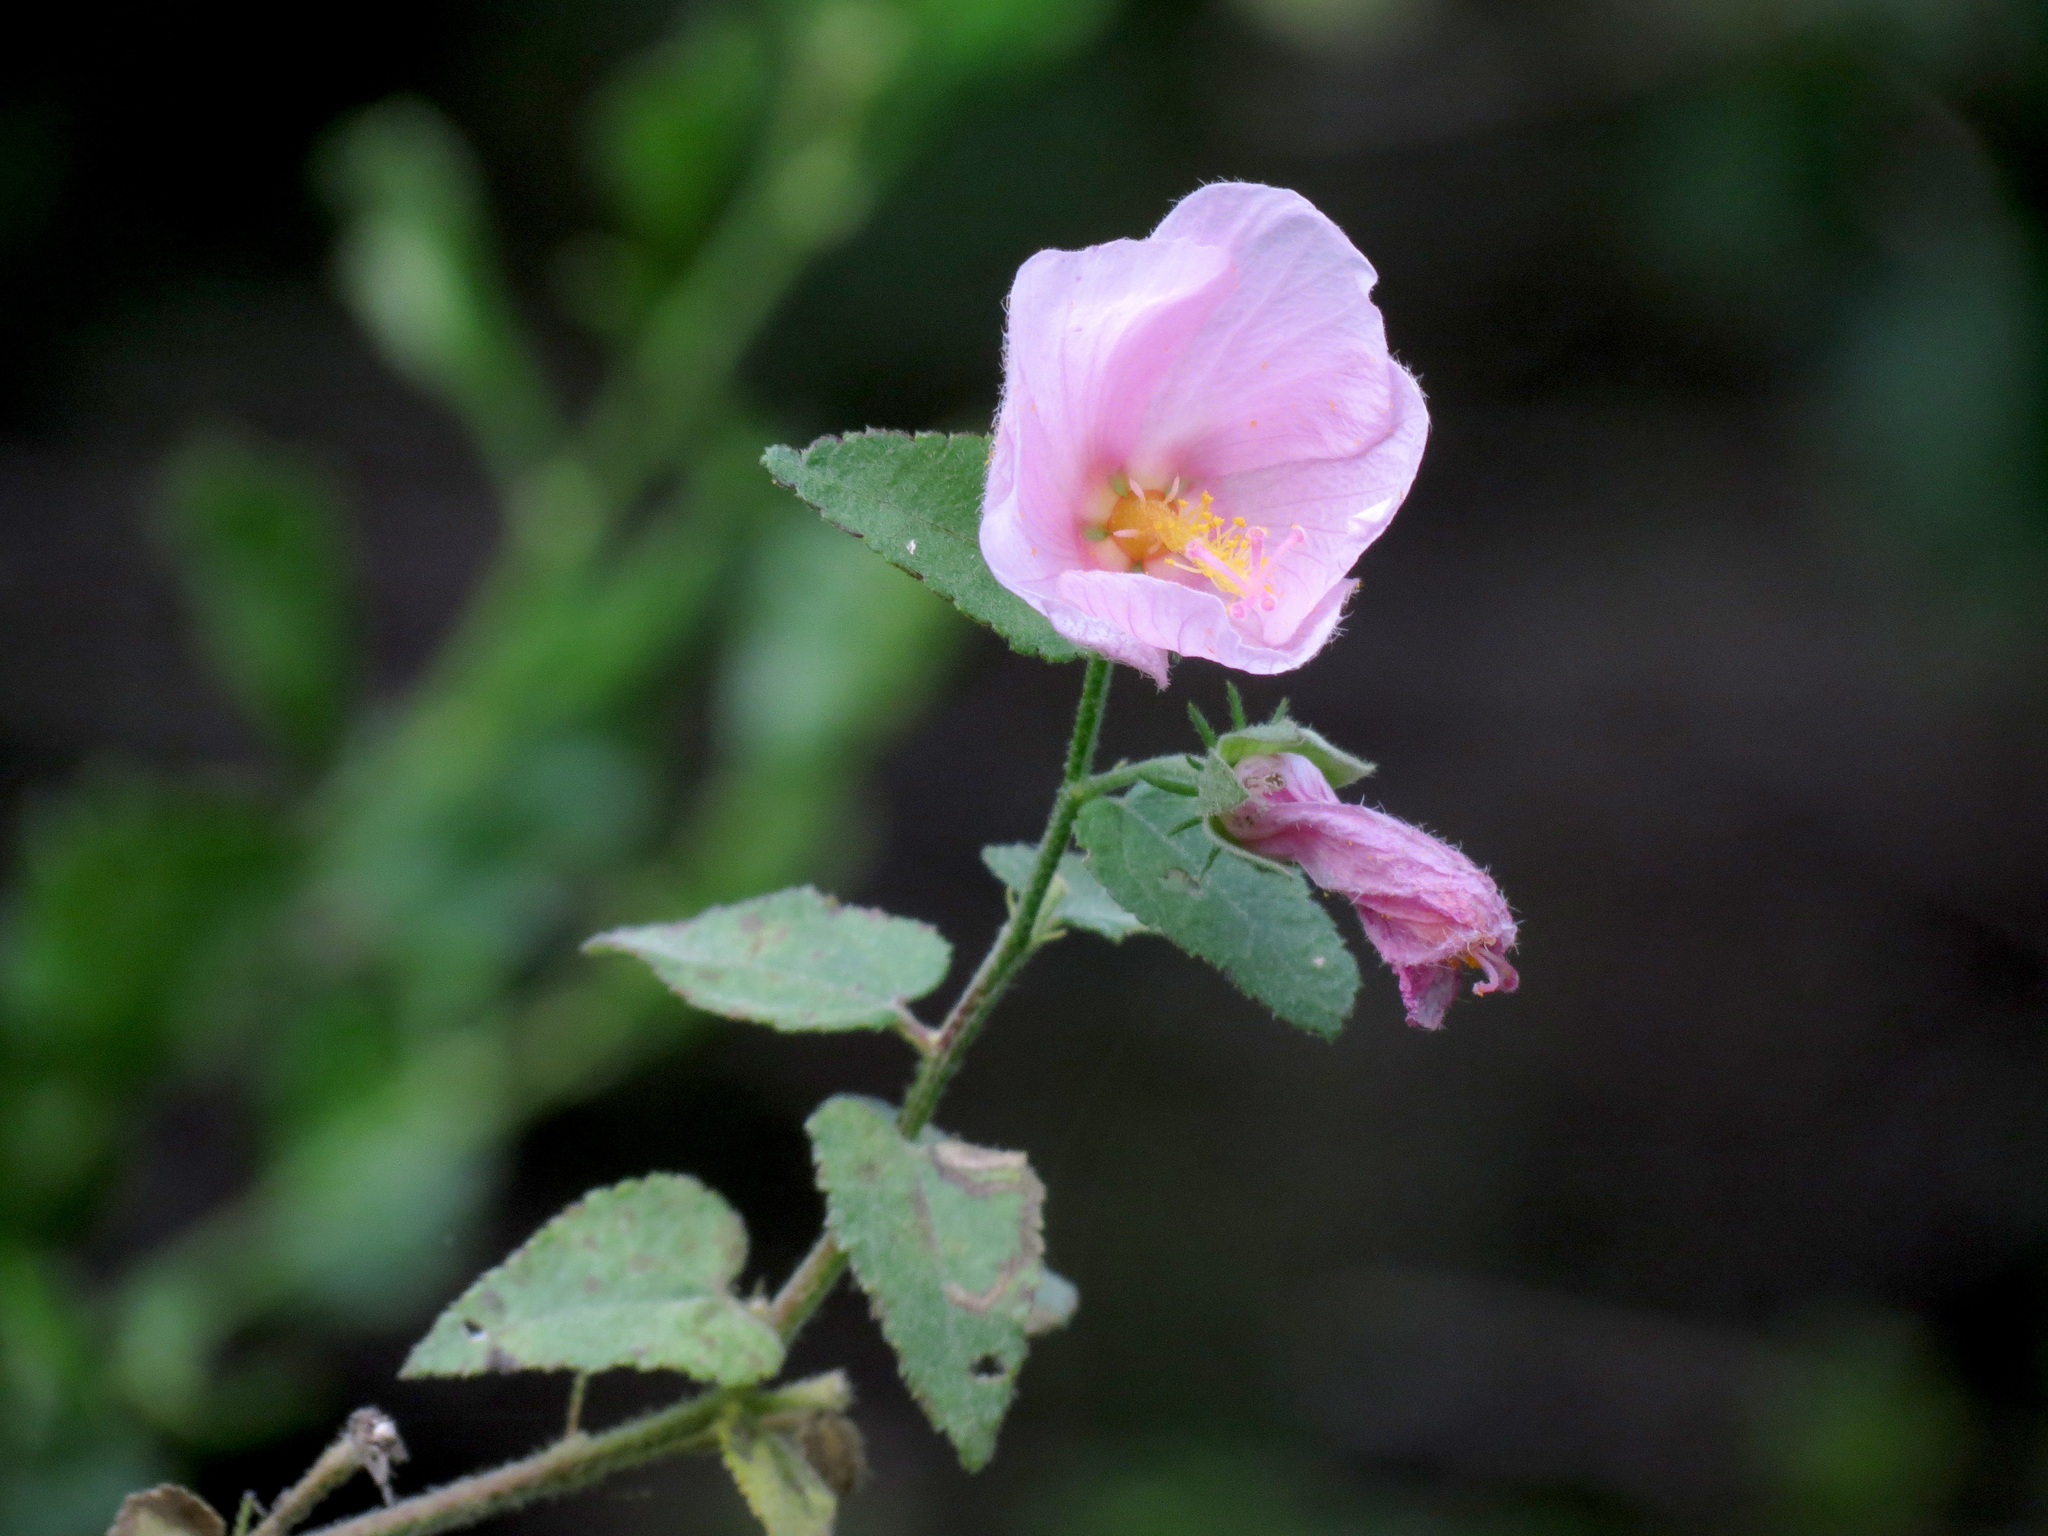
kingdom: Plantae
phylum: Tracheophyta
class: Magnoliopsida
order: Malvales
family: Malvaceae
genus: Kosteletzkya
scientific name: Kosteletzkya pentacarpos
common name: Virginia saltmarsh mallow
